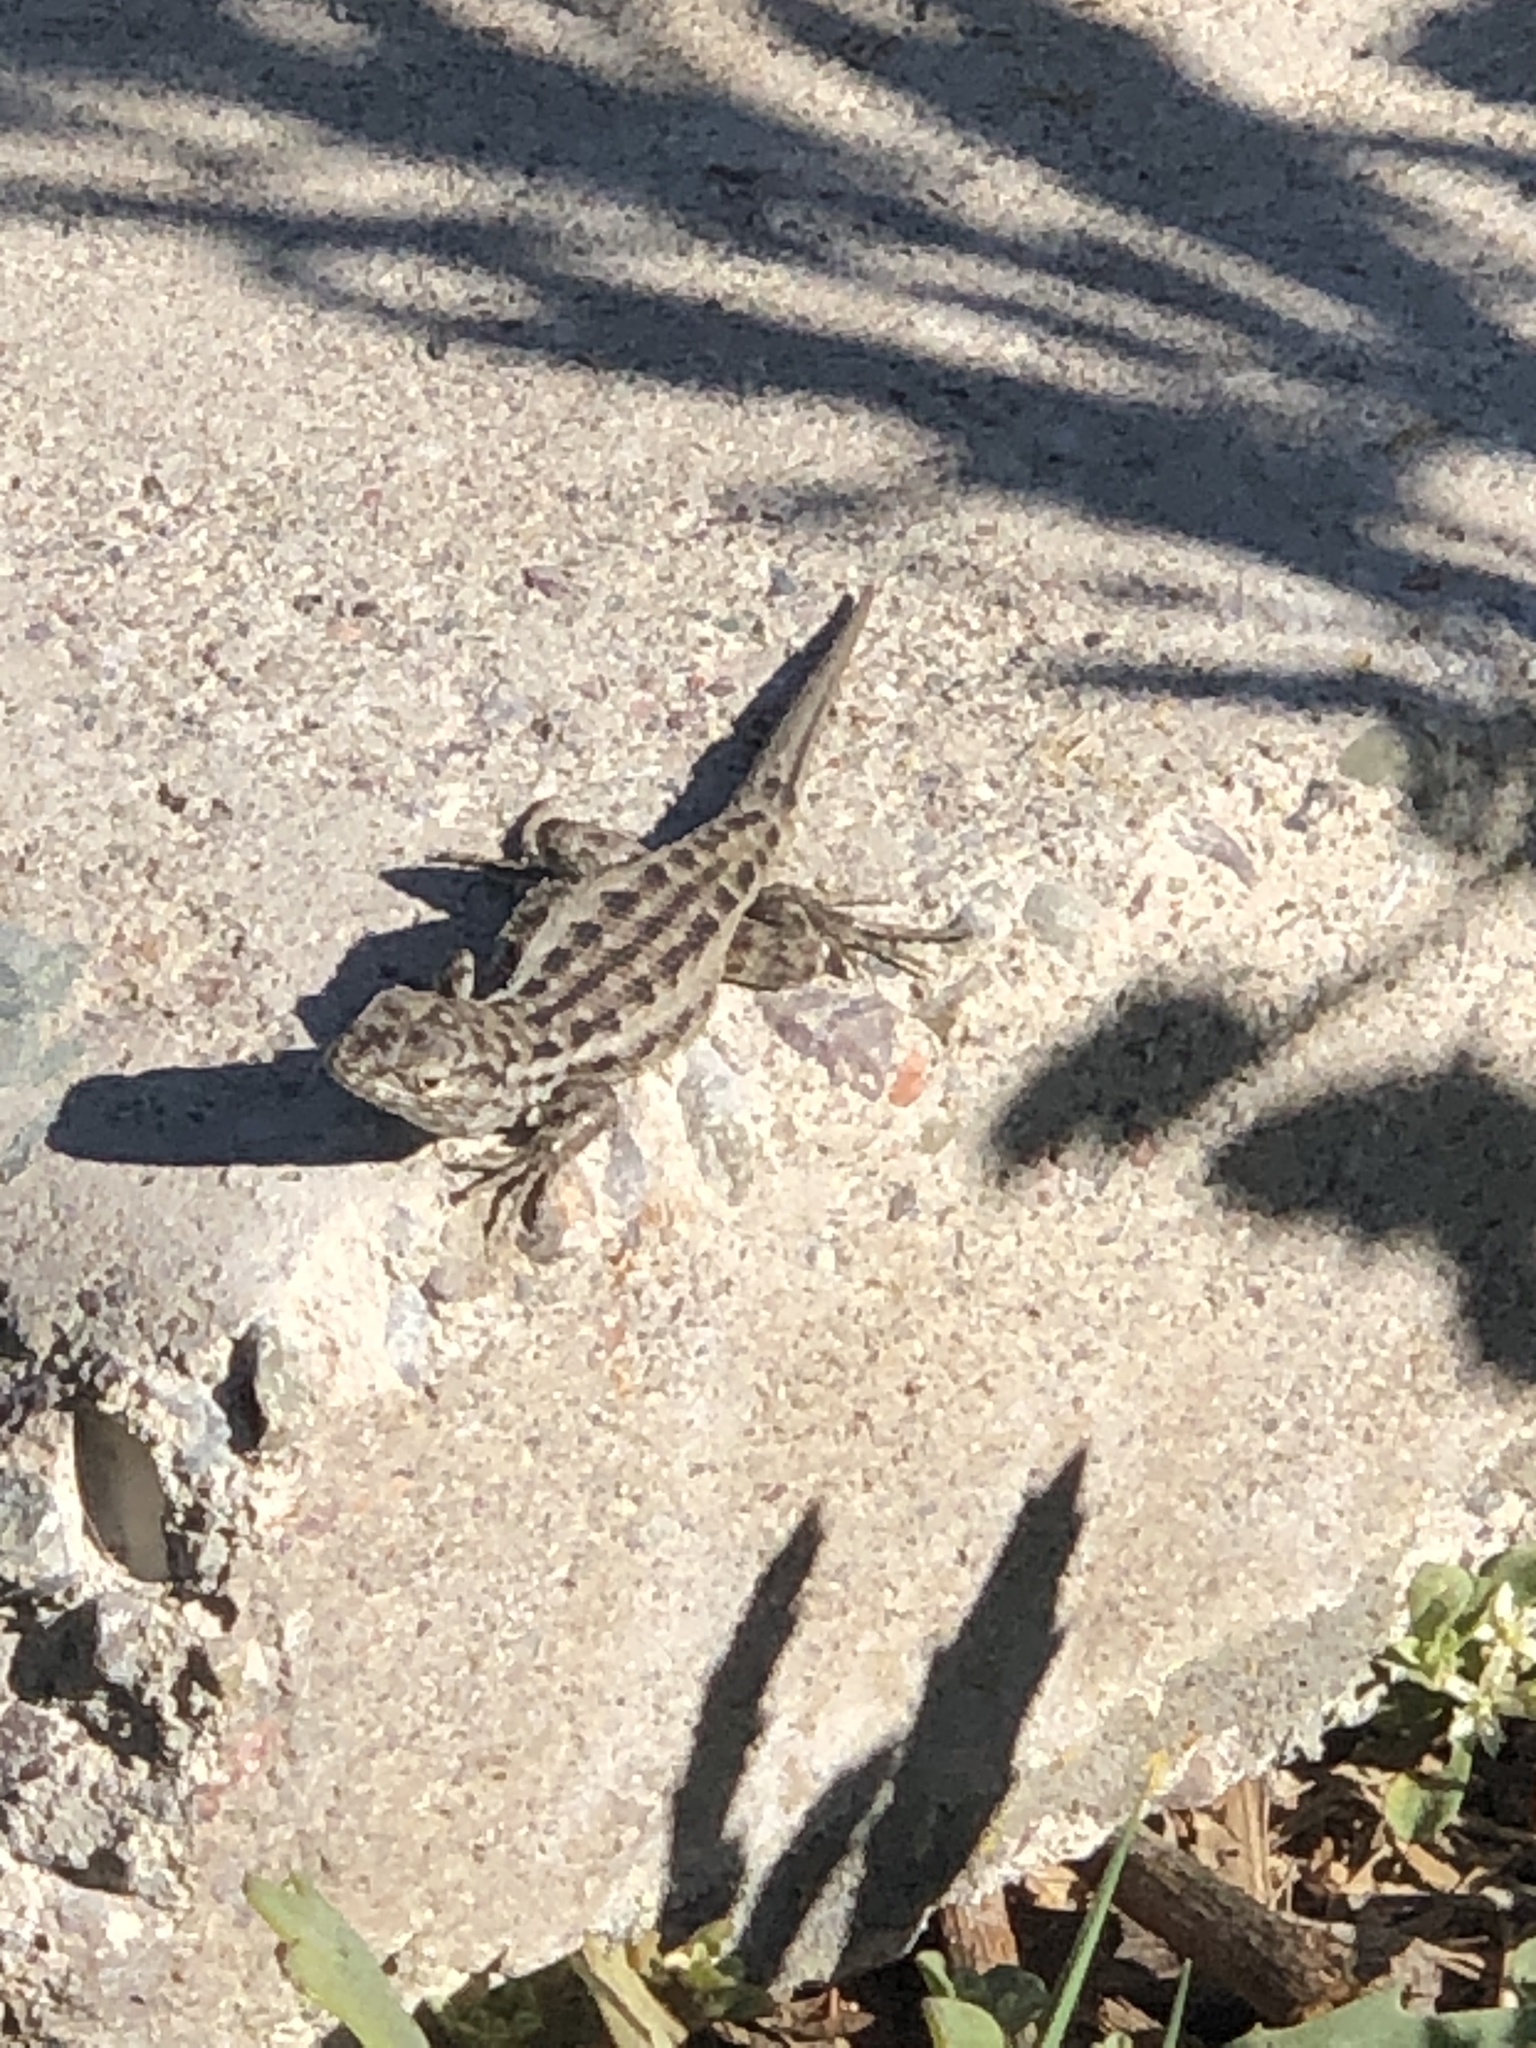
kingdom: Animalia
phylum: Chordata
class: Squamata
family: Liolaemidae
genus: Liolaemus
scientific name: Liolaemus zapallarensis
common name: Zapallaren tree iguana
